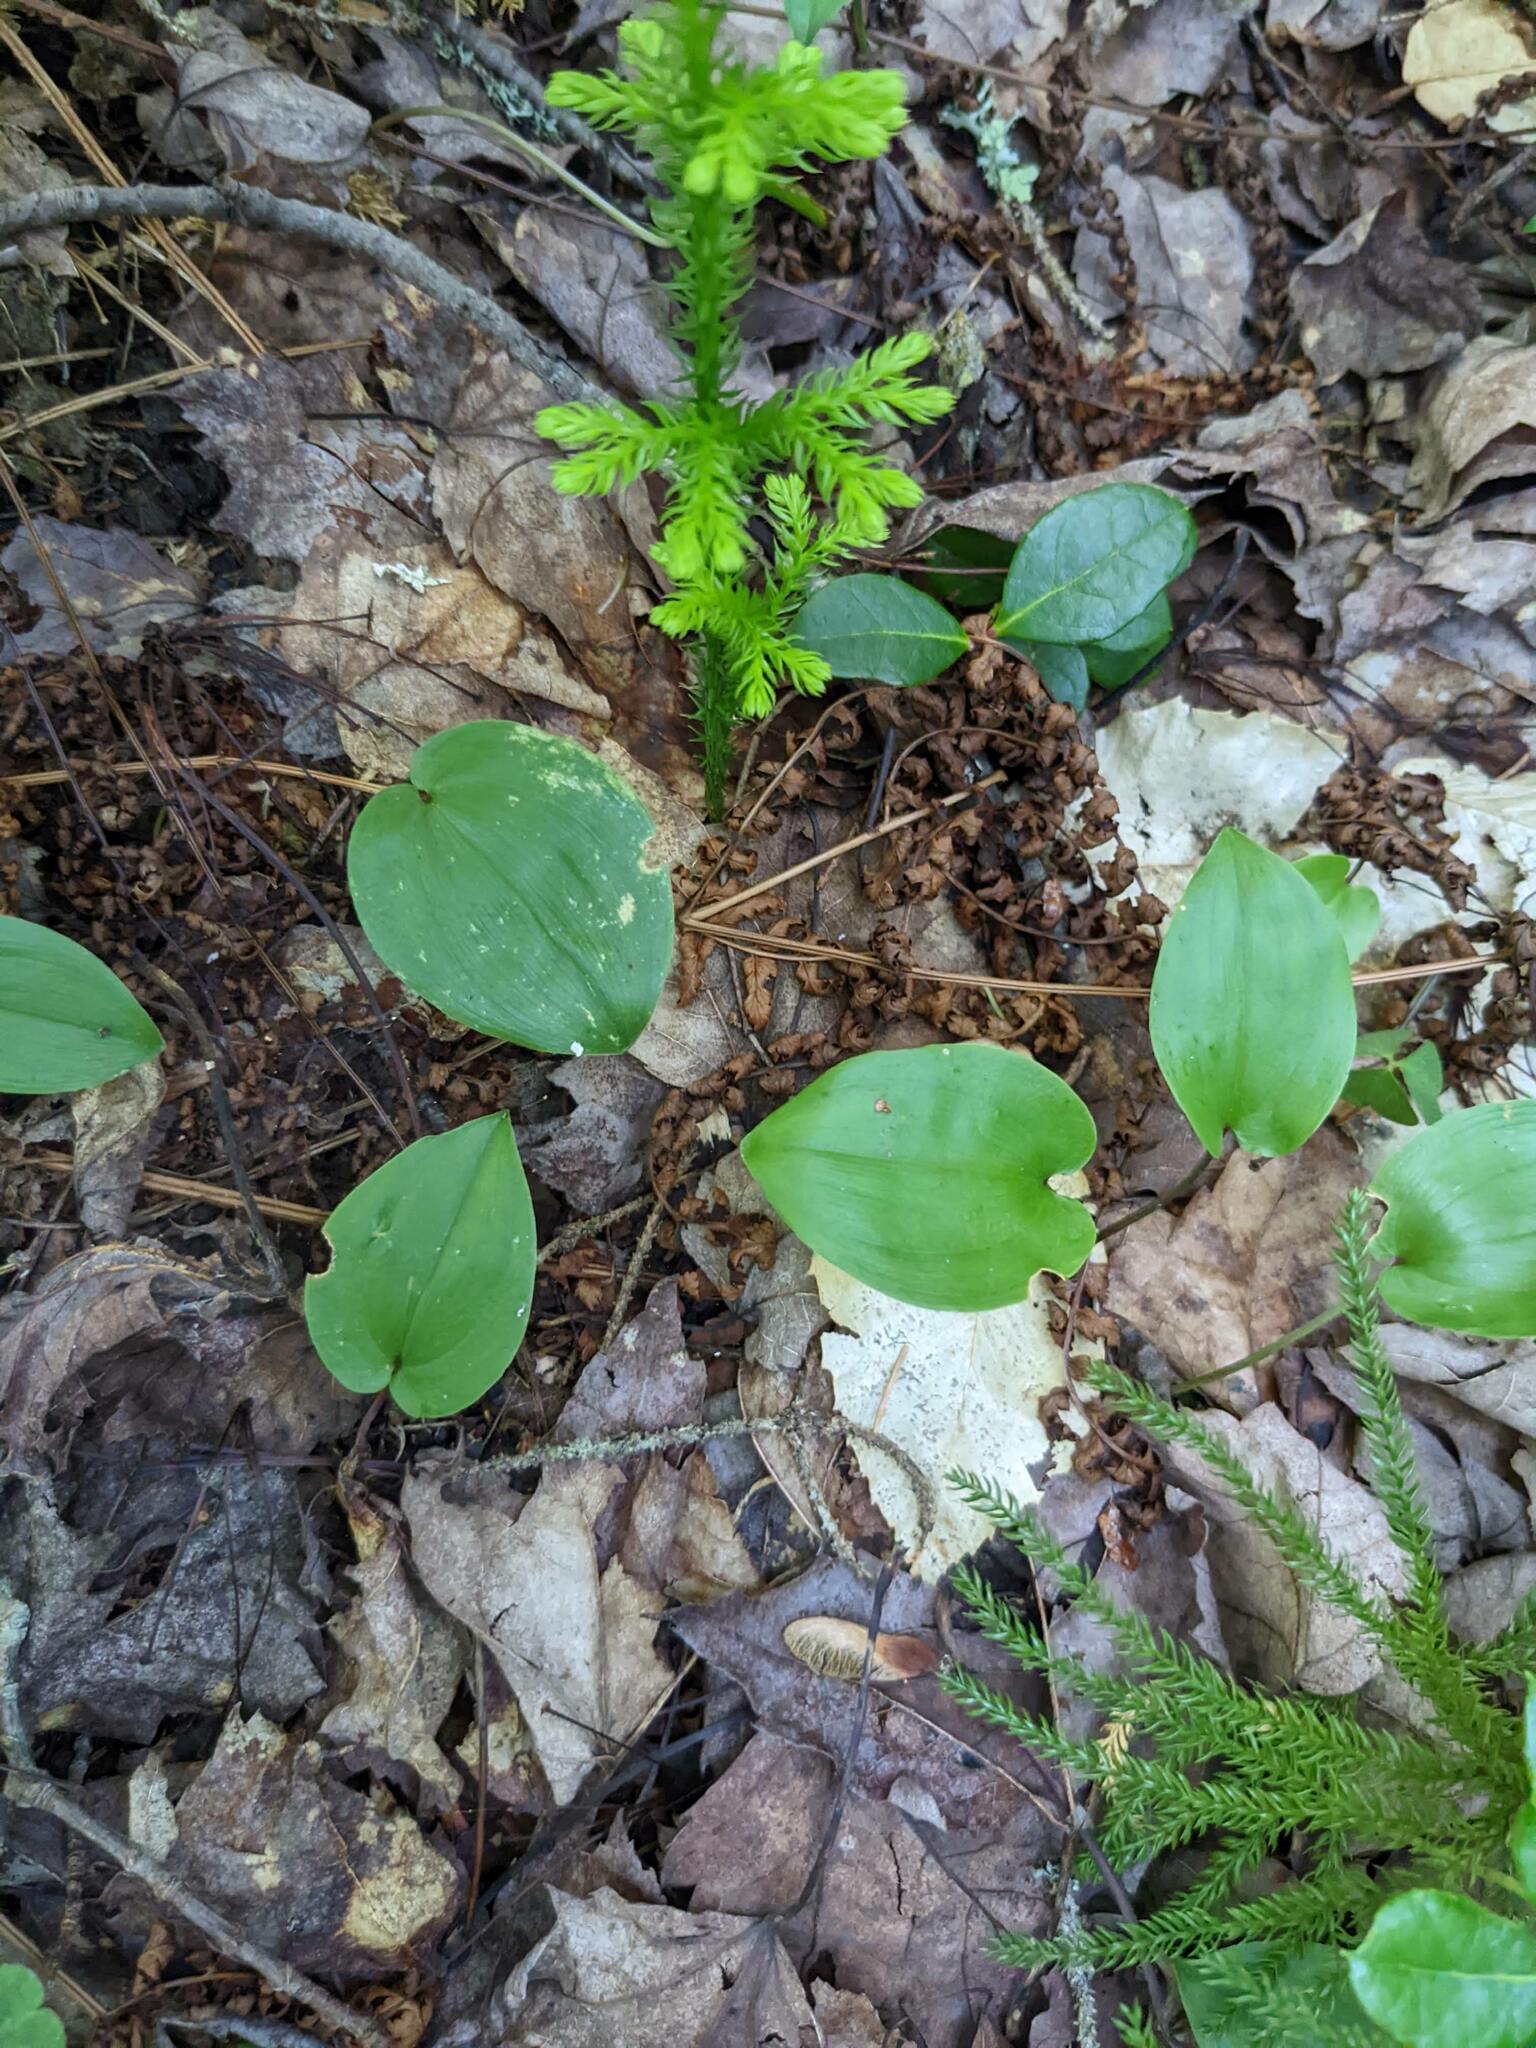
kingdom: Plantae
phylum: Tracheophyta
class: Liliopsida
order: Asparagales
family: Asparagaceae
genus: Maianthemum
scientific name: Maianthemum canadense
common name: False lily-of-the-valley
